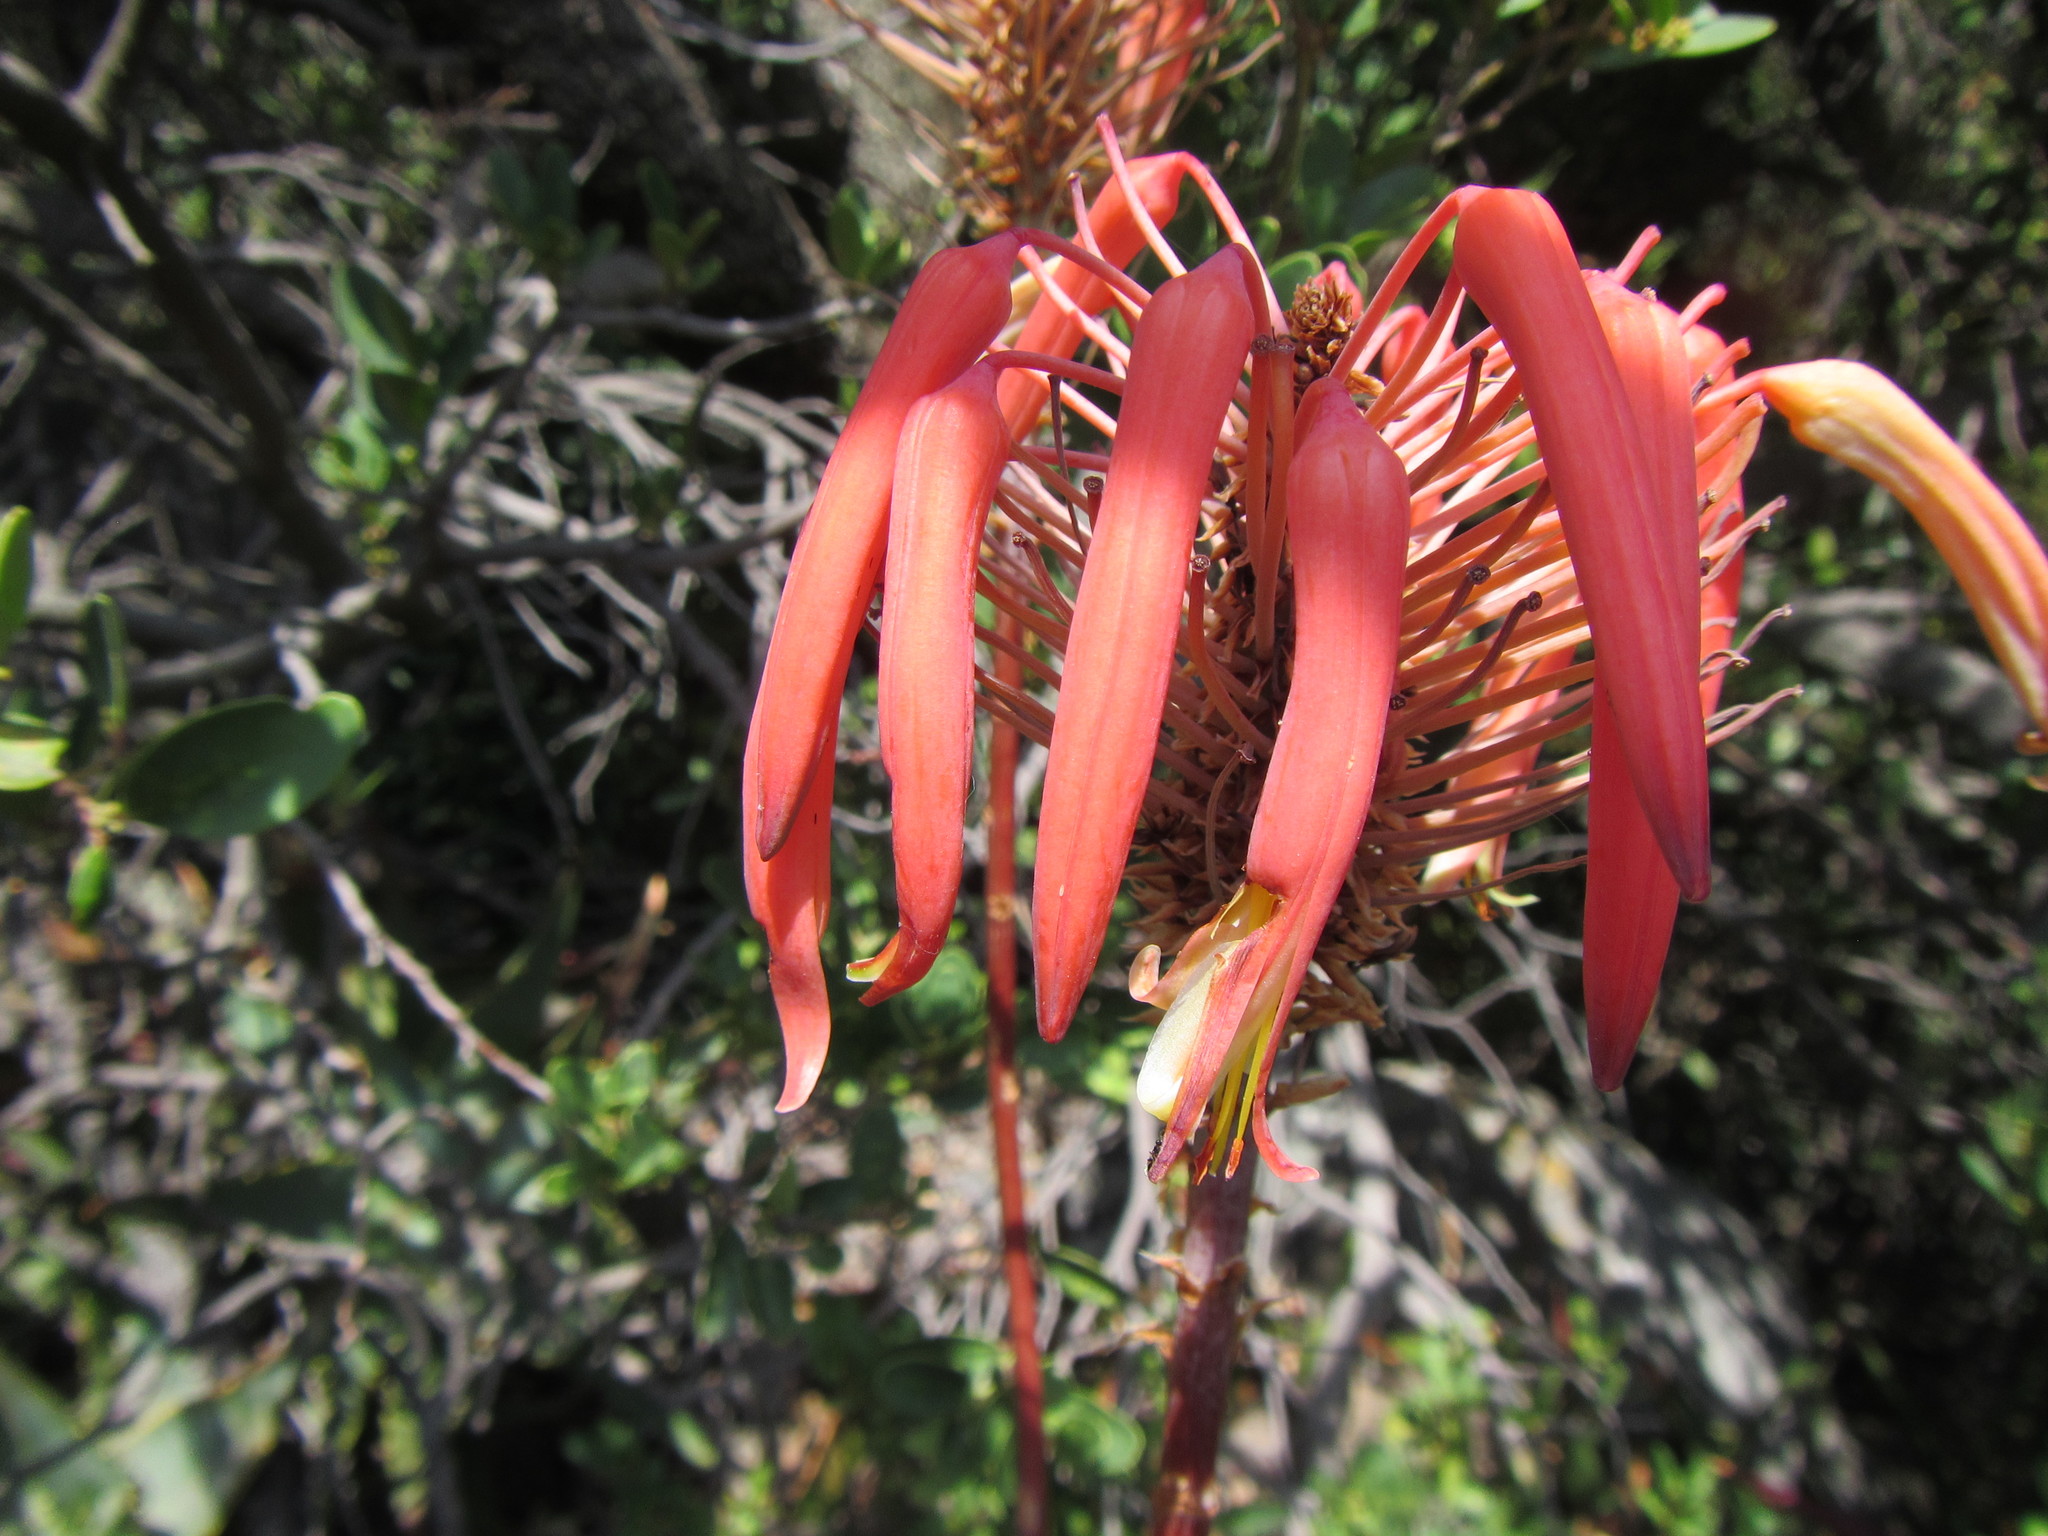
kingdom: Plantae
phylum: Tracheophyta
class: Liliopsida
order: Asparagales
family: Asphodelaceae
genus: Aloe
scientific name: Aloe perfoliata
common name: Mitra aloe
